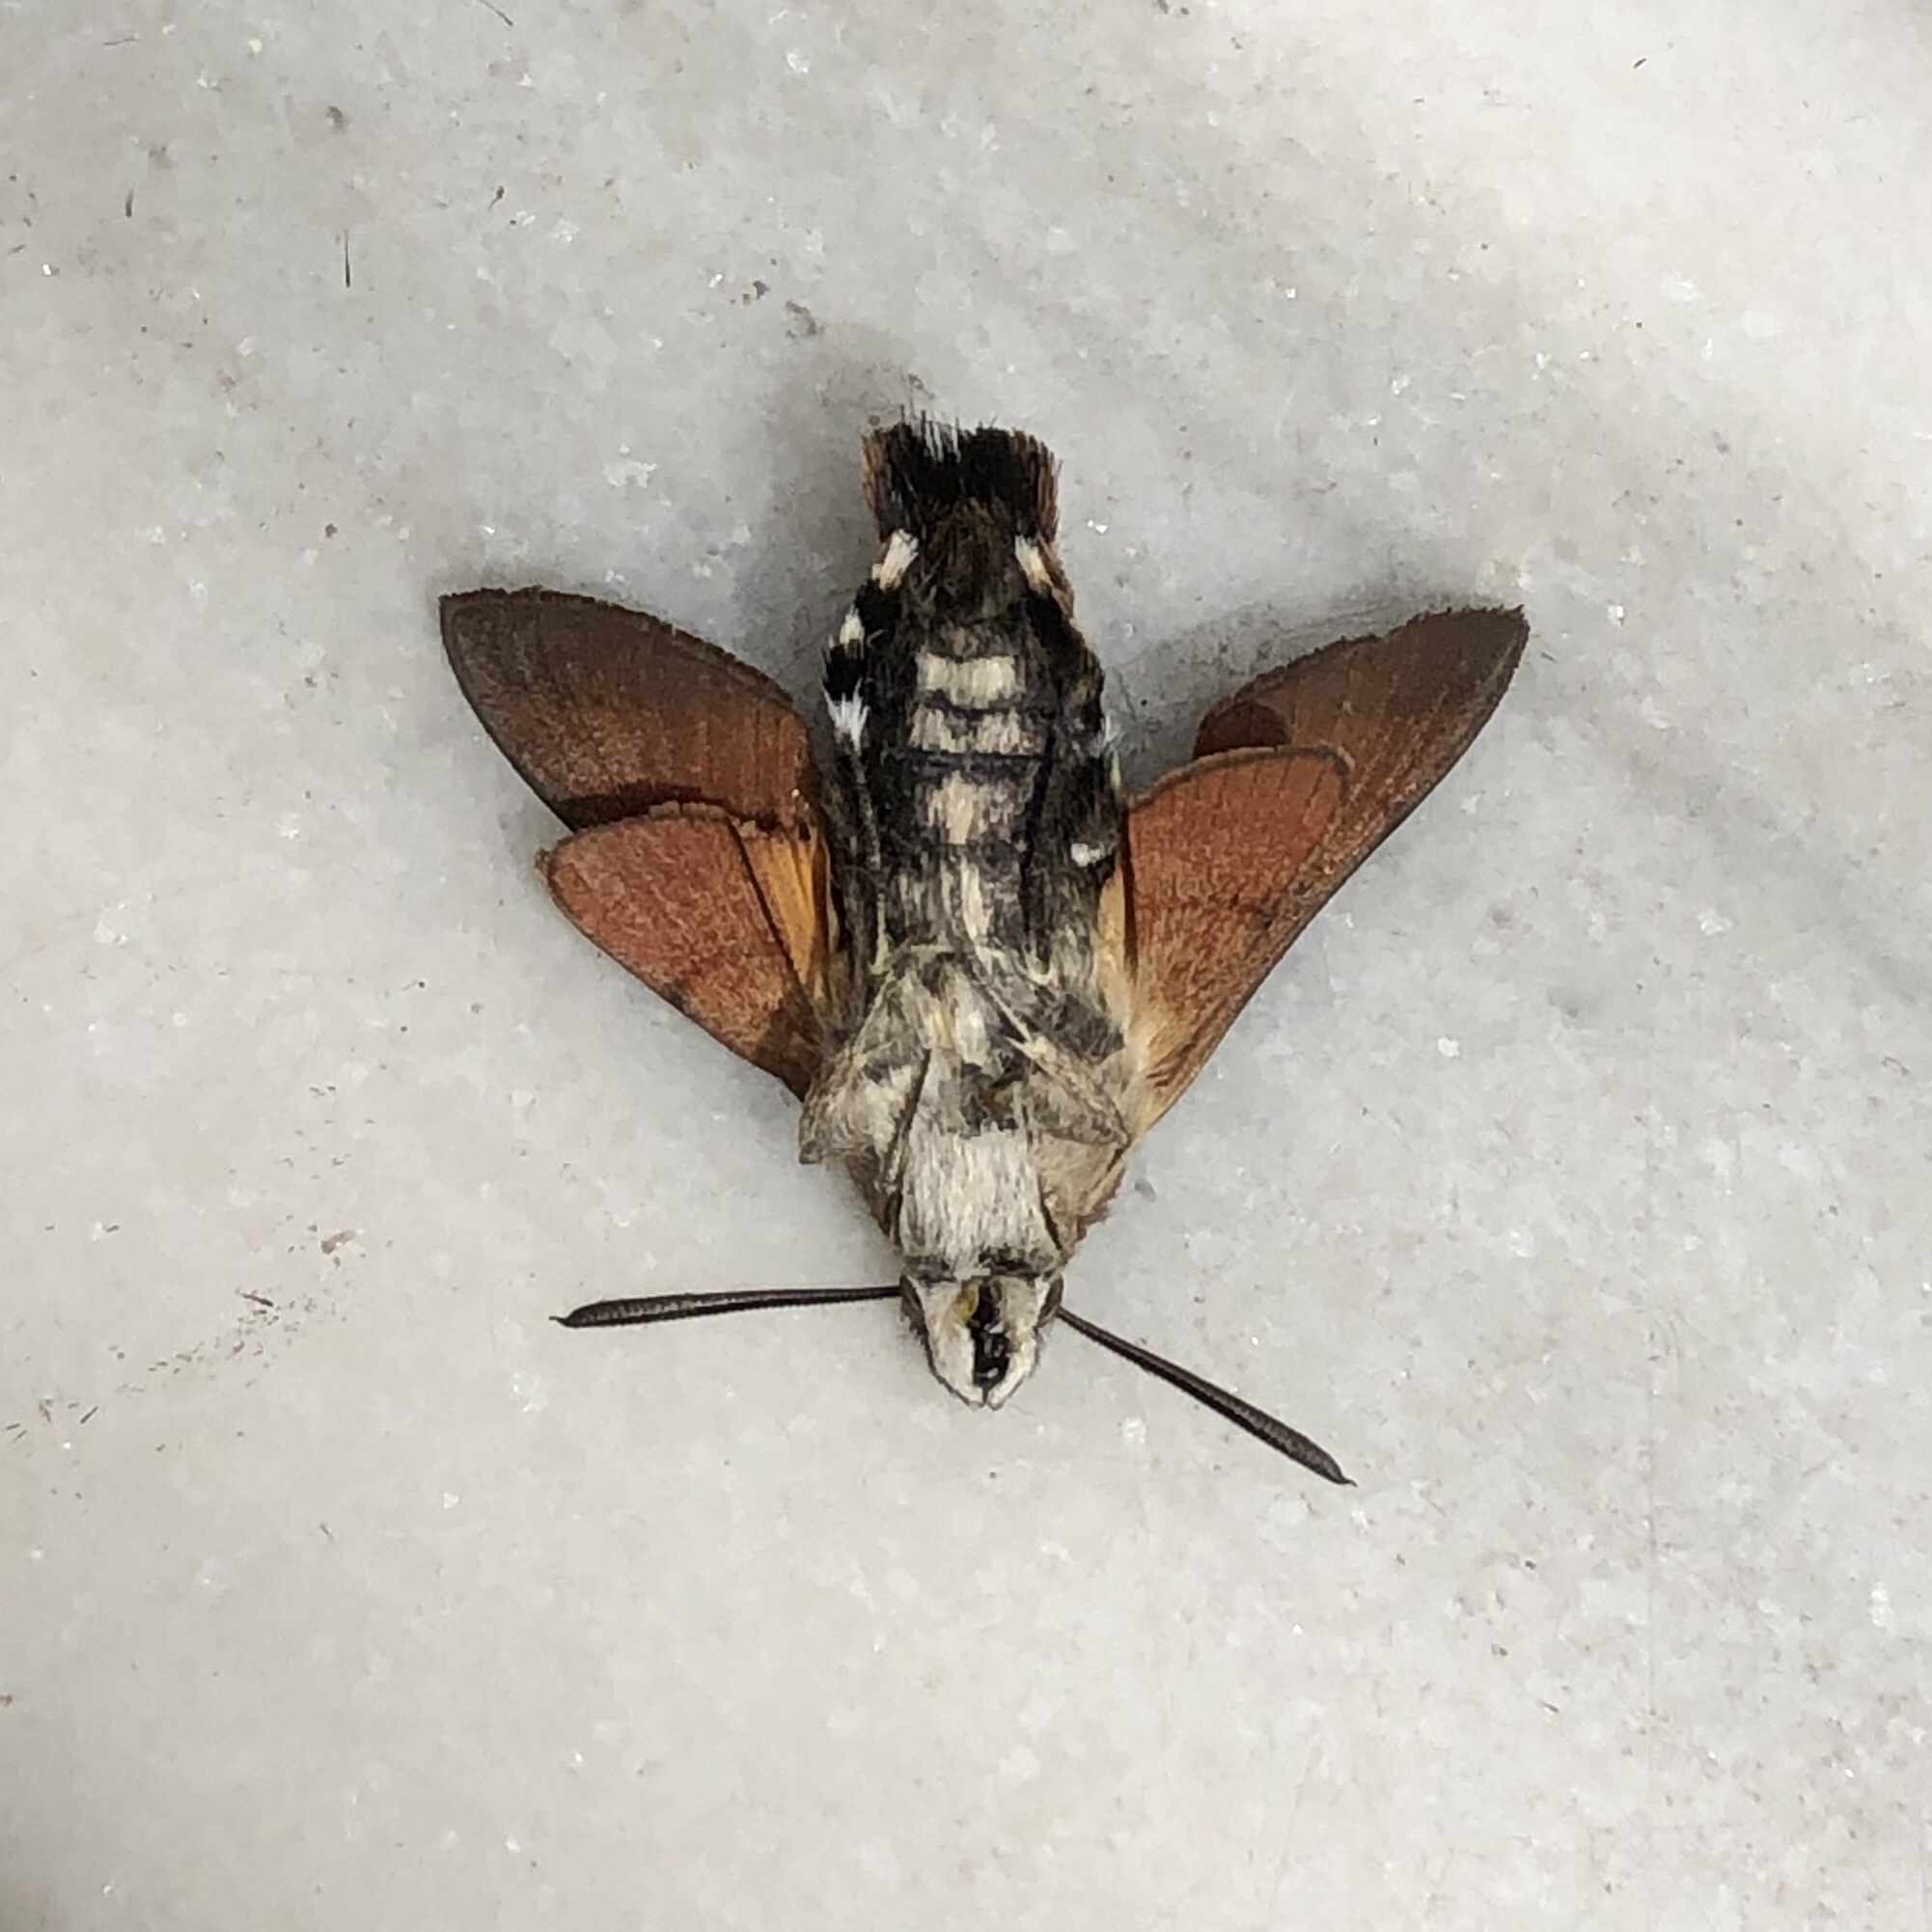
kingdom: Animalia
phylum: Arthropoda
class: Insecta
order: Lepidoptera
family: Sphingidae
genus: Macroglossum
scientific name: Macroglossum stellatarum
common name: Humming-bird hawk-moth
